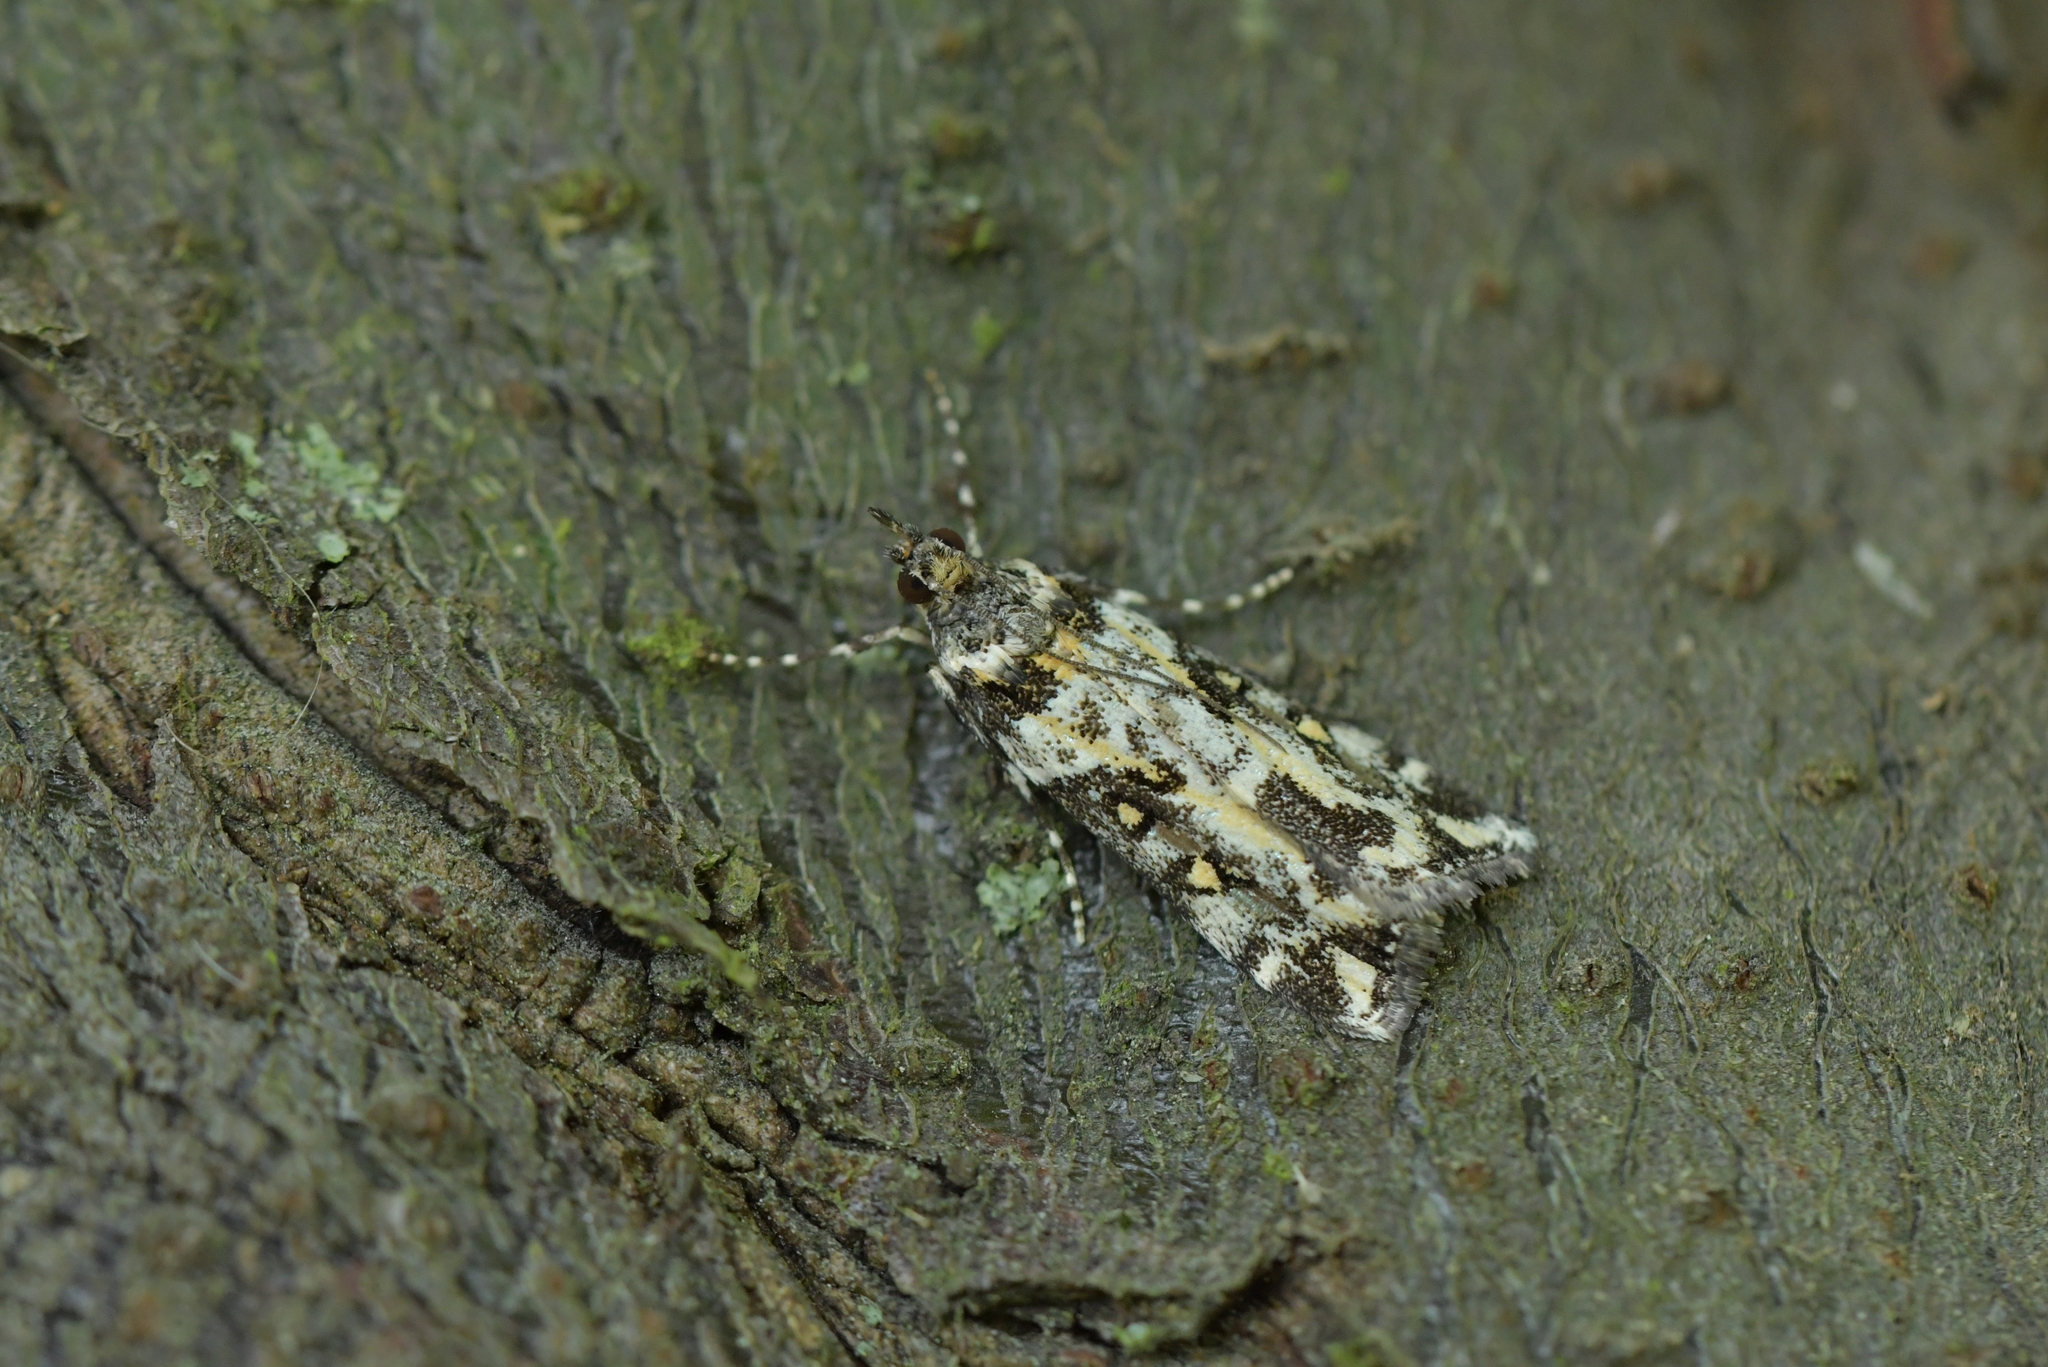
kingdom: Animalia
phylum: Arthropoda
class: Insecta
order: Lepidoptera
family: Crambidae
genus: Eudonia
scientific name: Eudonia diphtheralis
